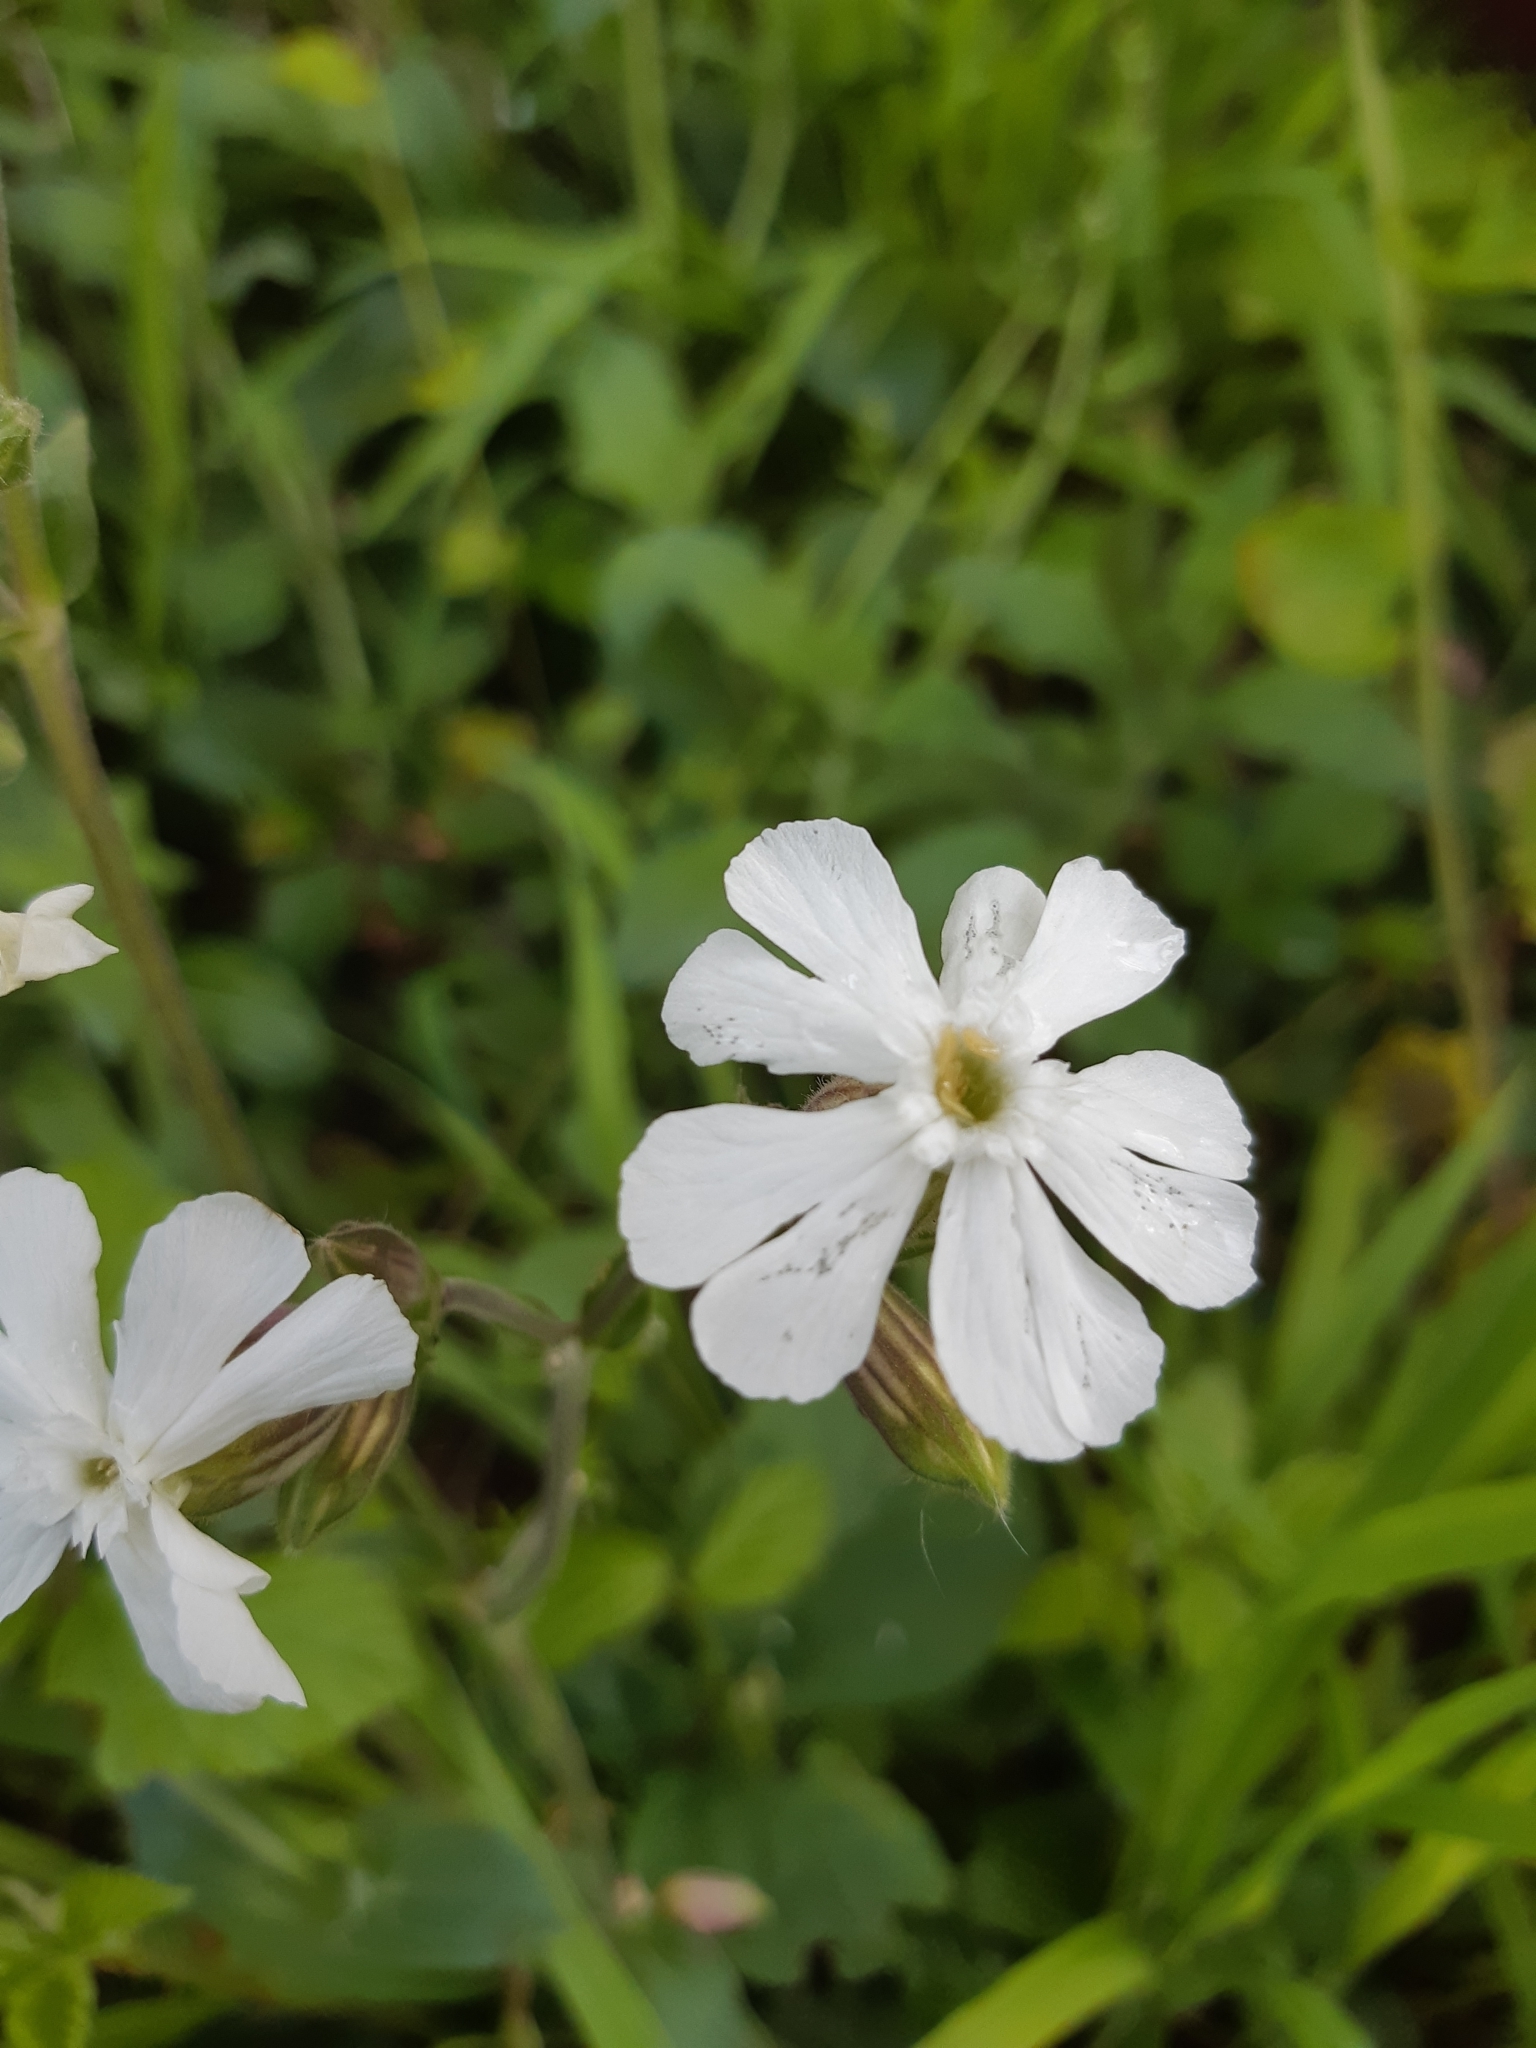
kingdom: Plantae
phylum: Tracheophyta
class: Magnoliopsida
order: Caryophyllales
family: Caryophyllaceae
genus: Silene
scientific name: Silene latifolia
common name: White campion
